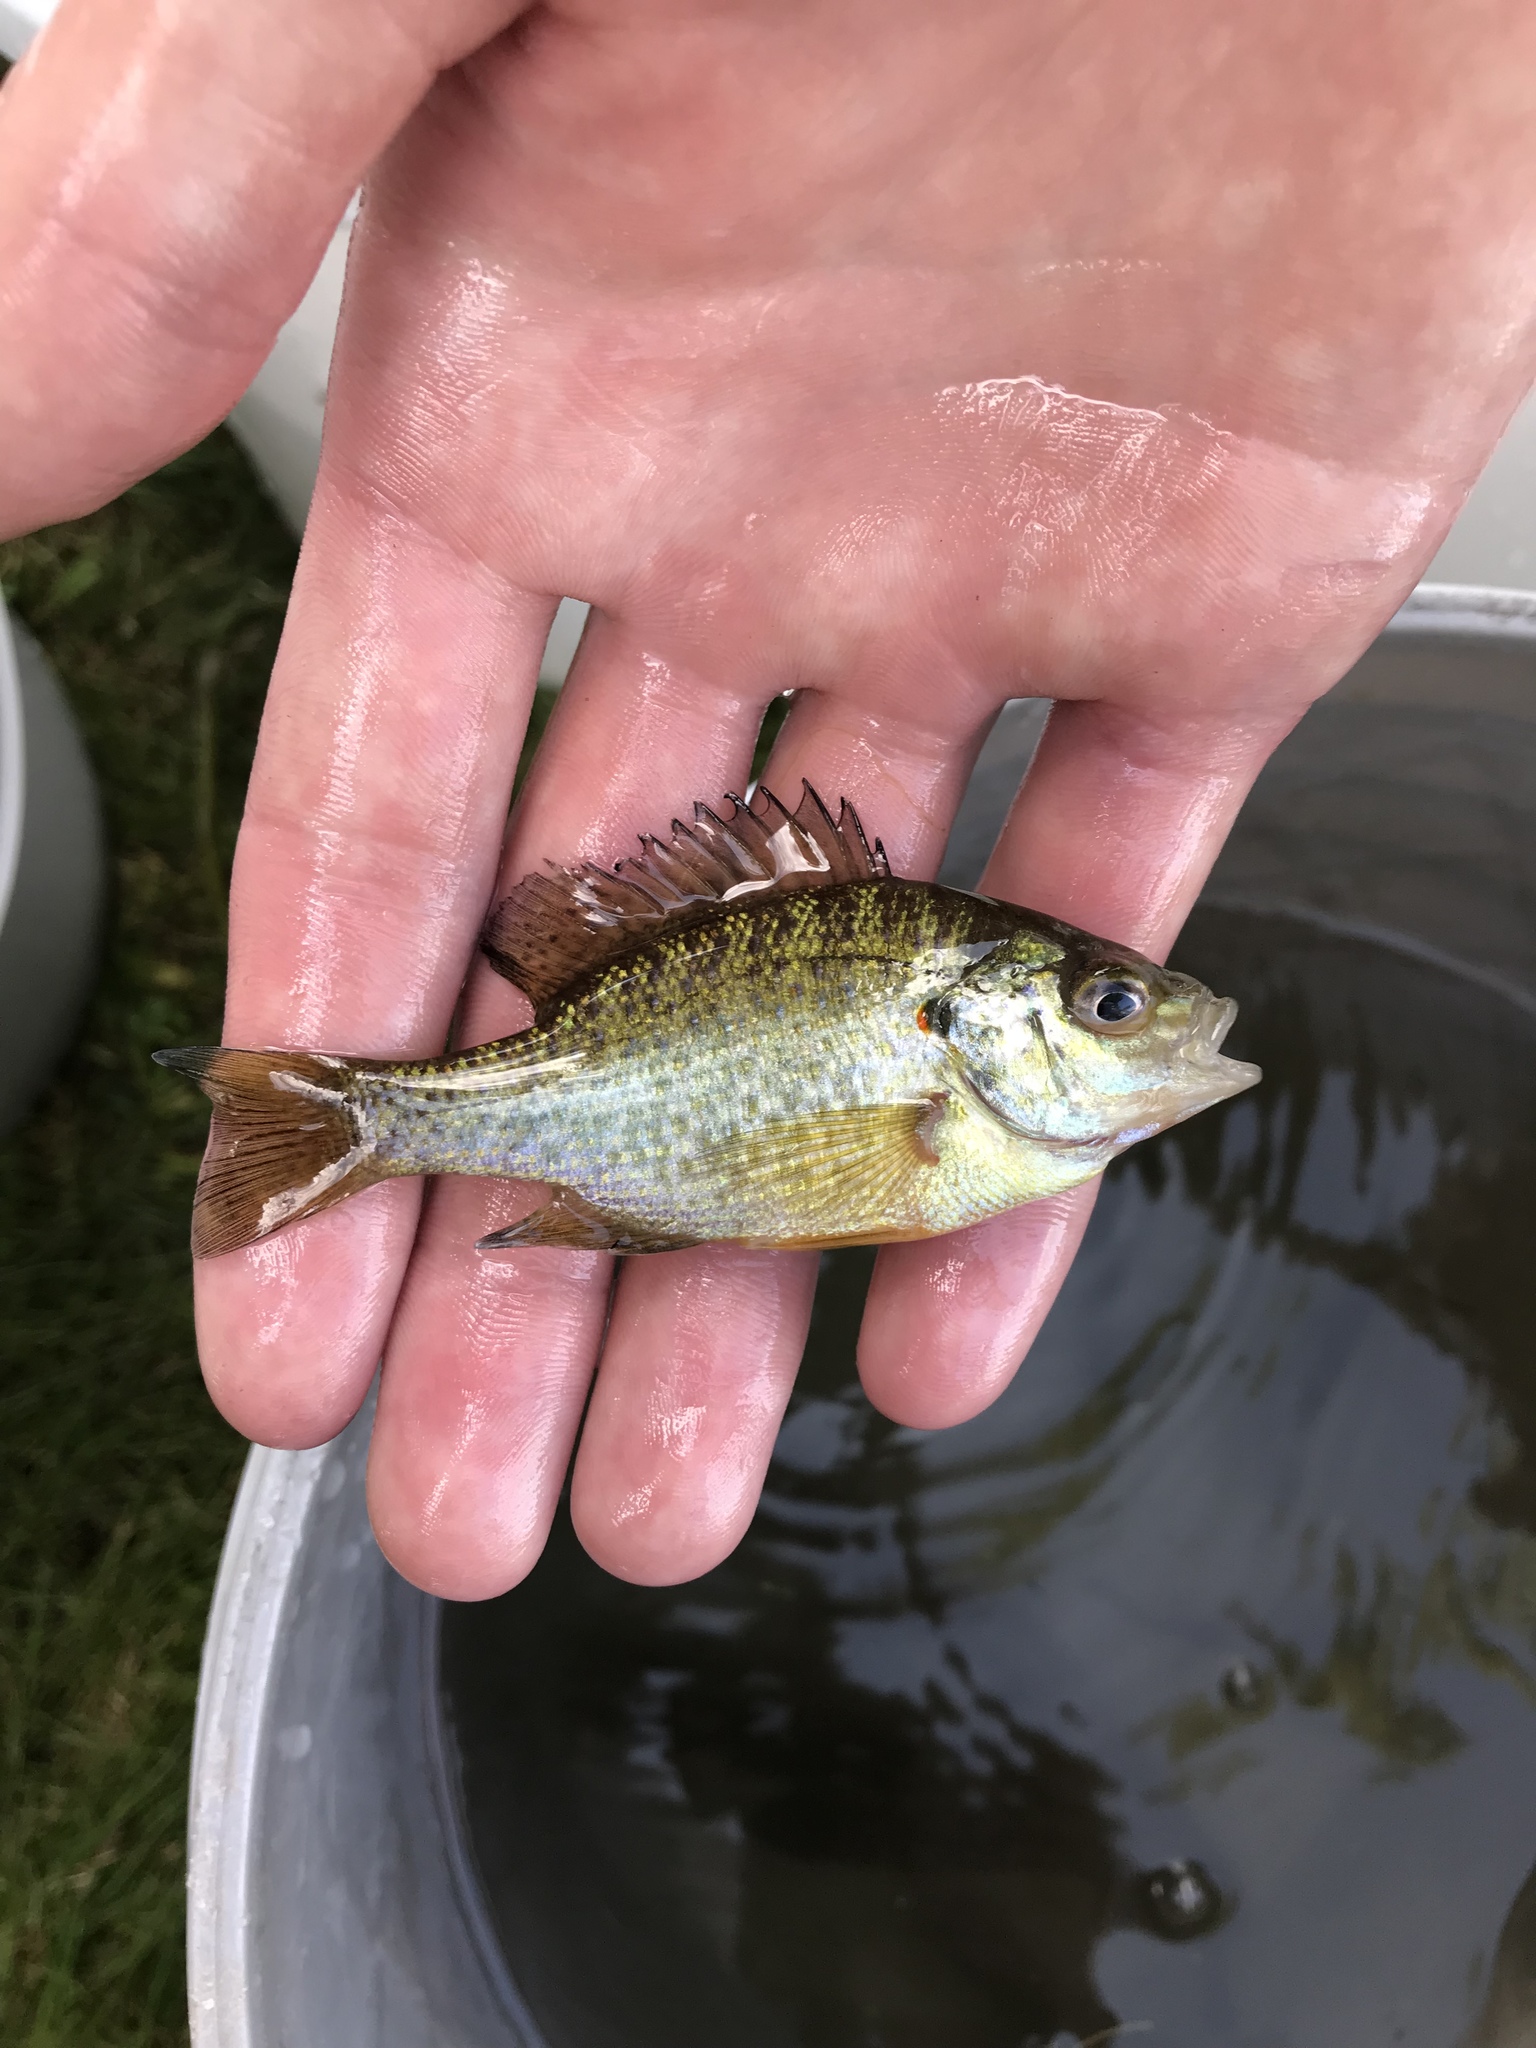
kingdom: Animalia
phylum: Chordata
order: Perciformes
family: Centrarchidae
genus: Lepomis
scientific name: Lepomis gibbosus
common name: Pumpkinseed
